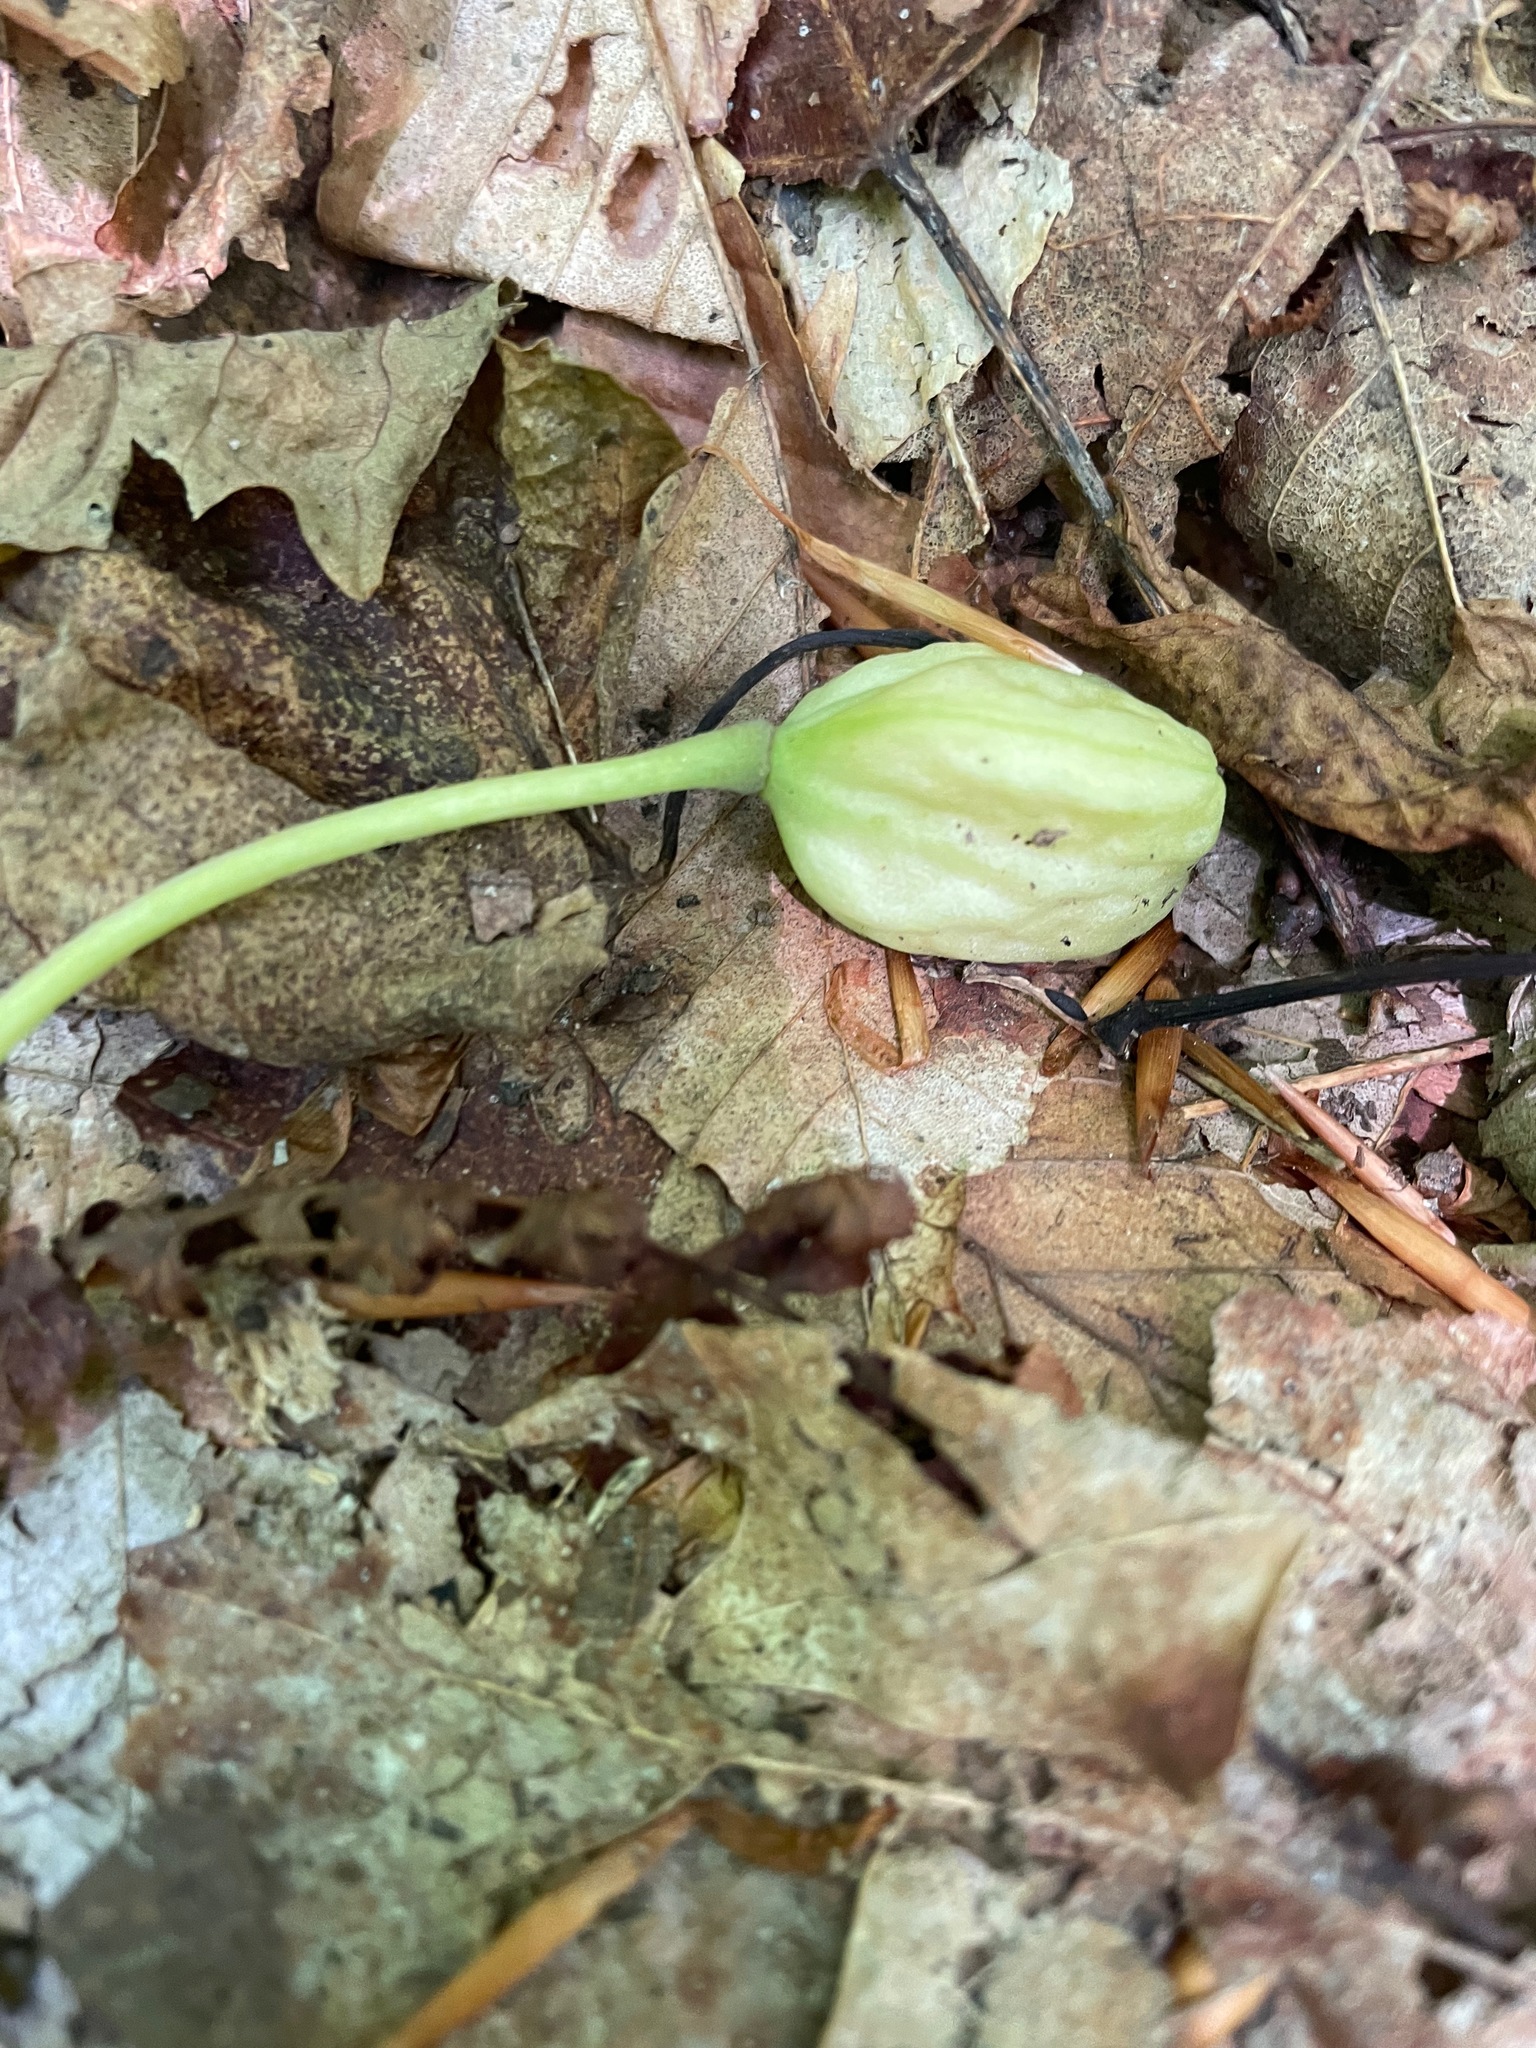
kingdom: Plantae
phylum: Tracheophyta
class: Liliopsida
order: Liliales
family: Liliaceae
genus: Erythronium
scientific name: Erythronium americanum
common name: Yellow adder's-tongue
